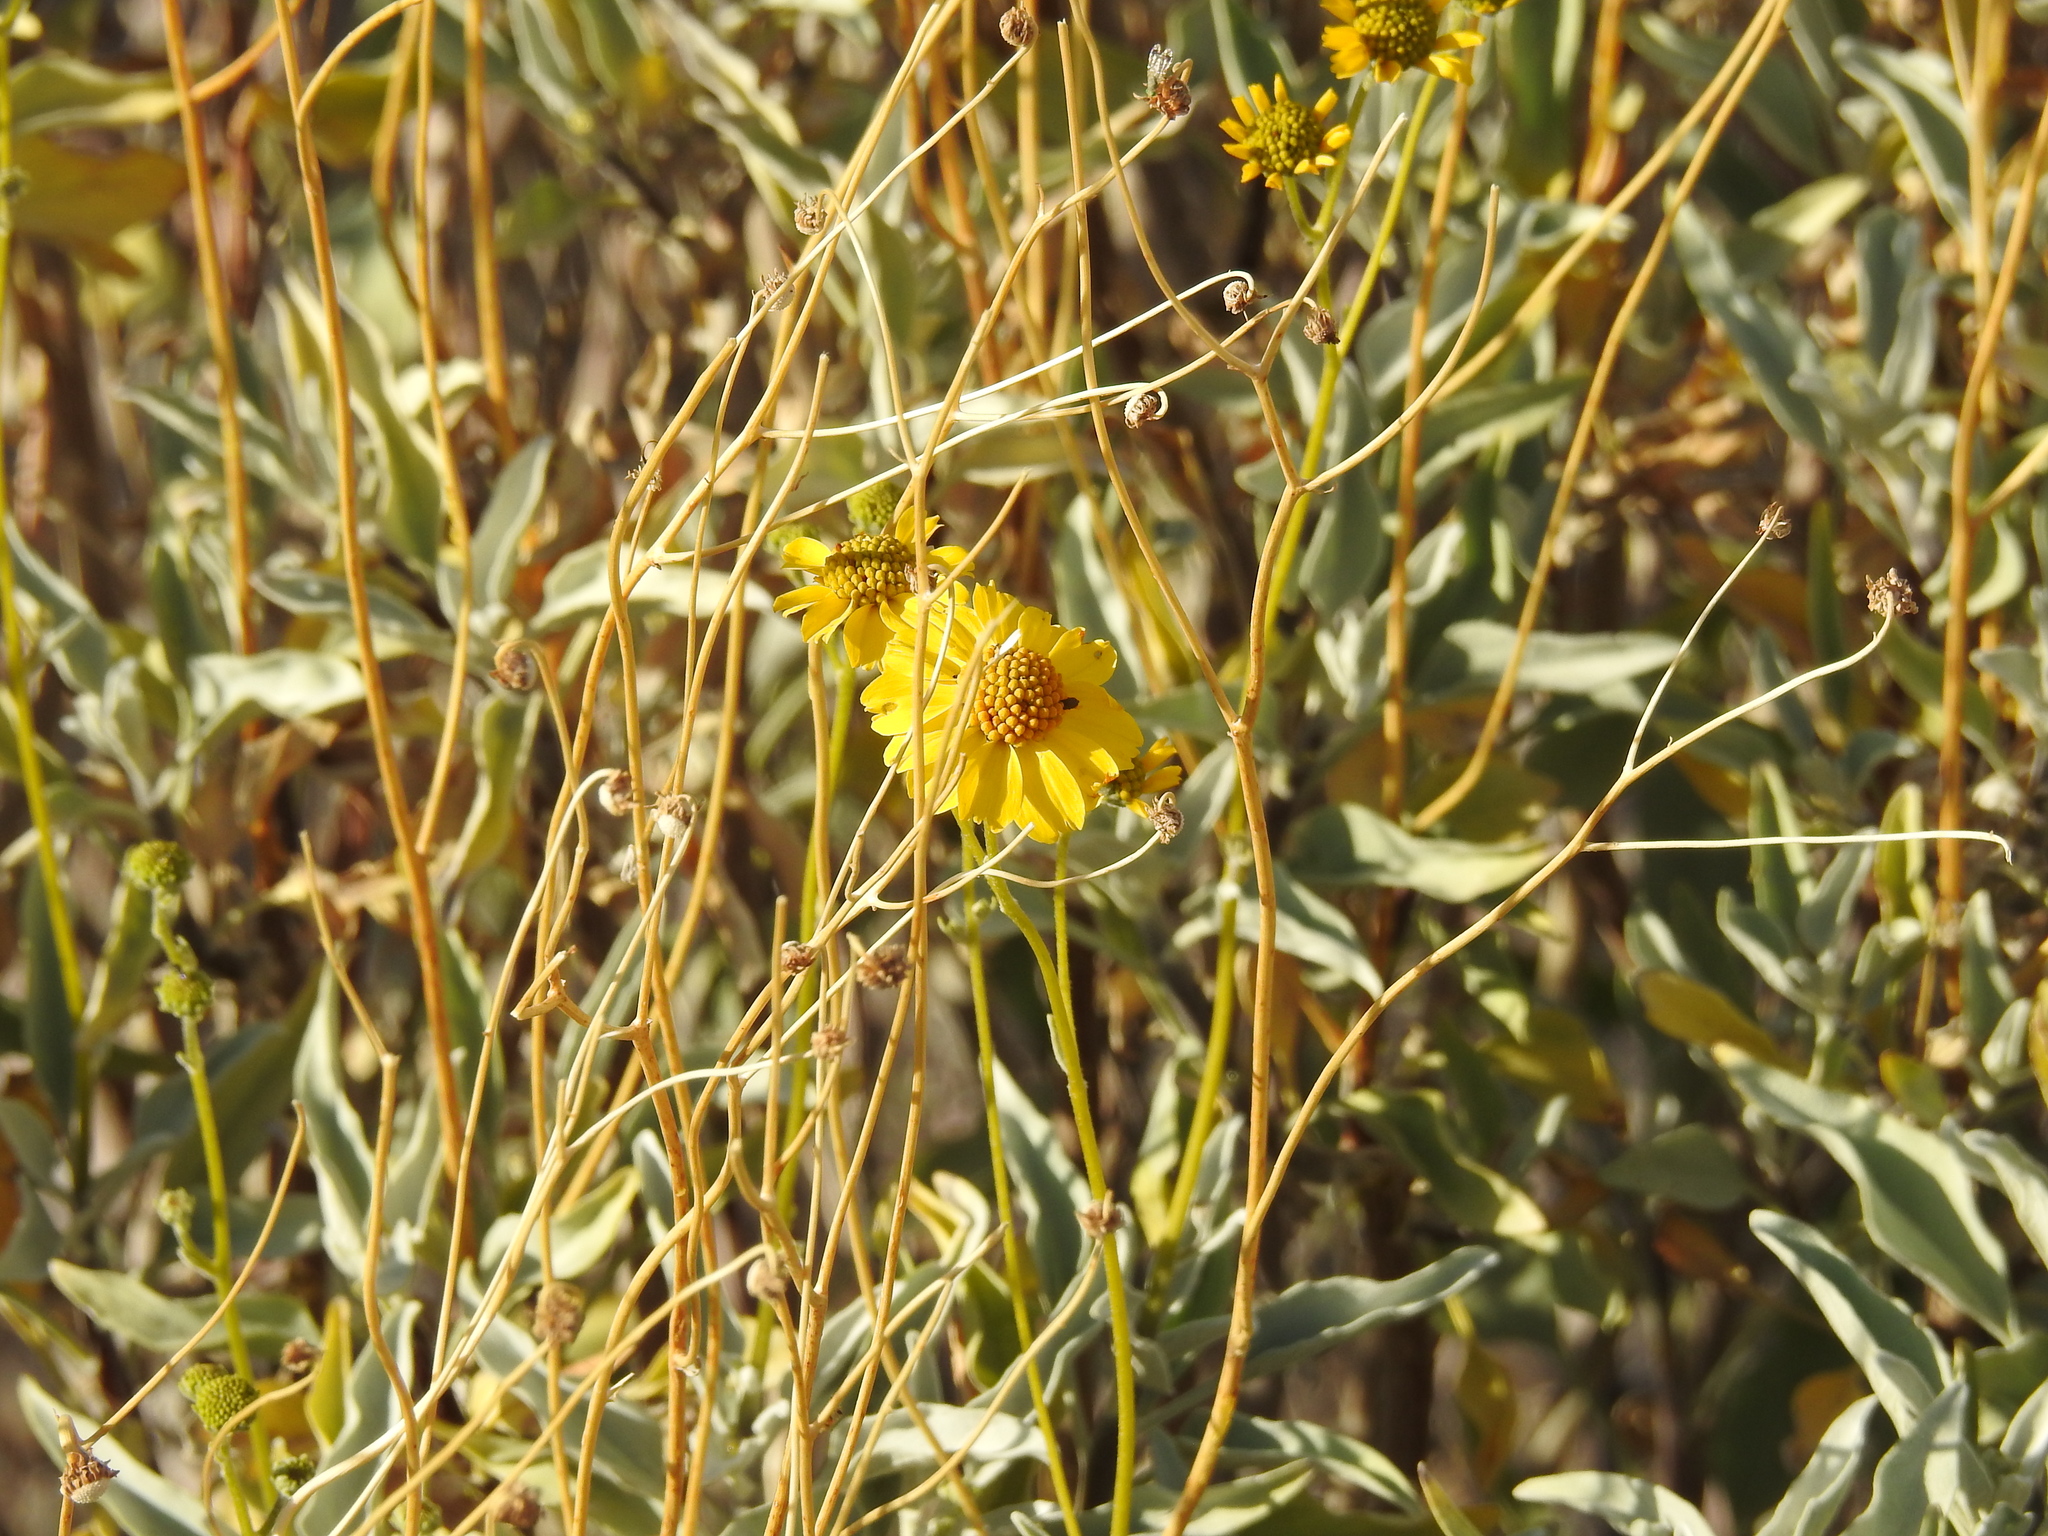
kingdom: Plantae
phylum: Tracheophyta
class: Magnoliopsida
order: Asterales
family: Asteraceae
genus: Encelia
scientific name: Encelia farinosa
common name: Brittlebush
